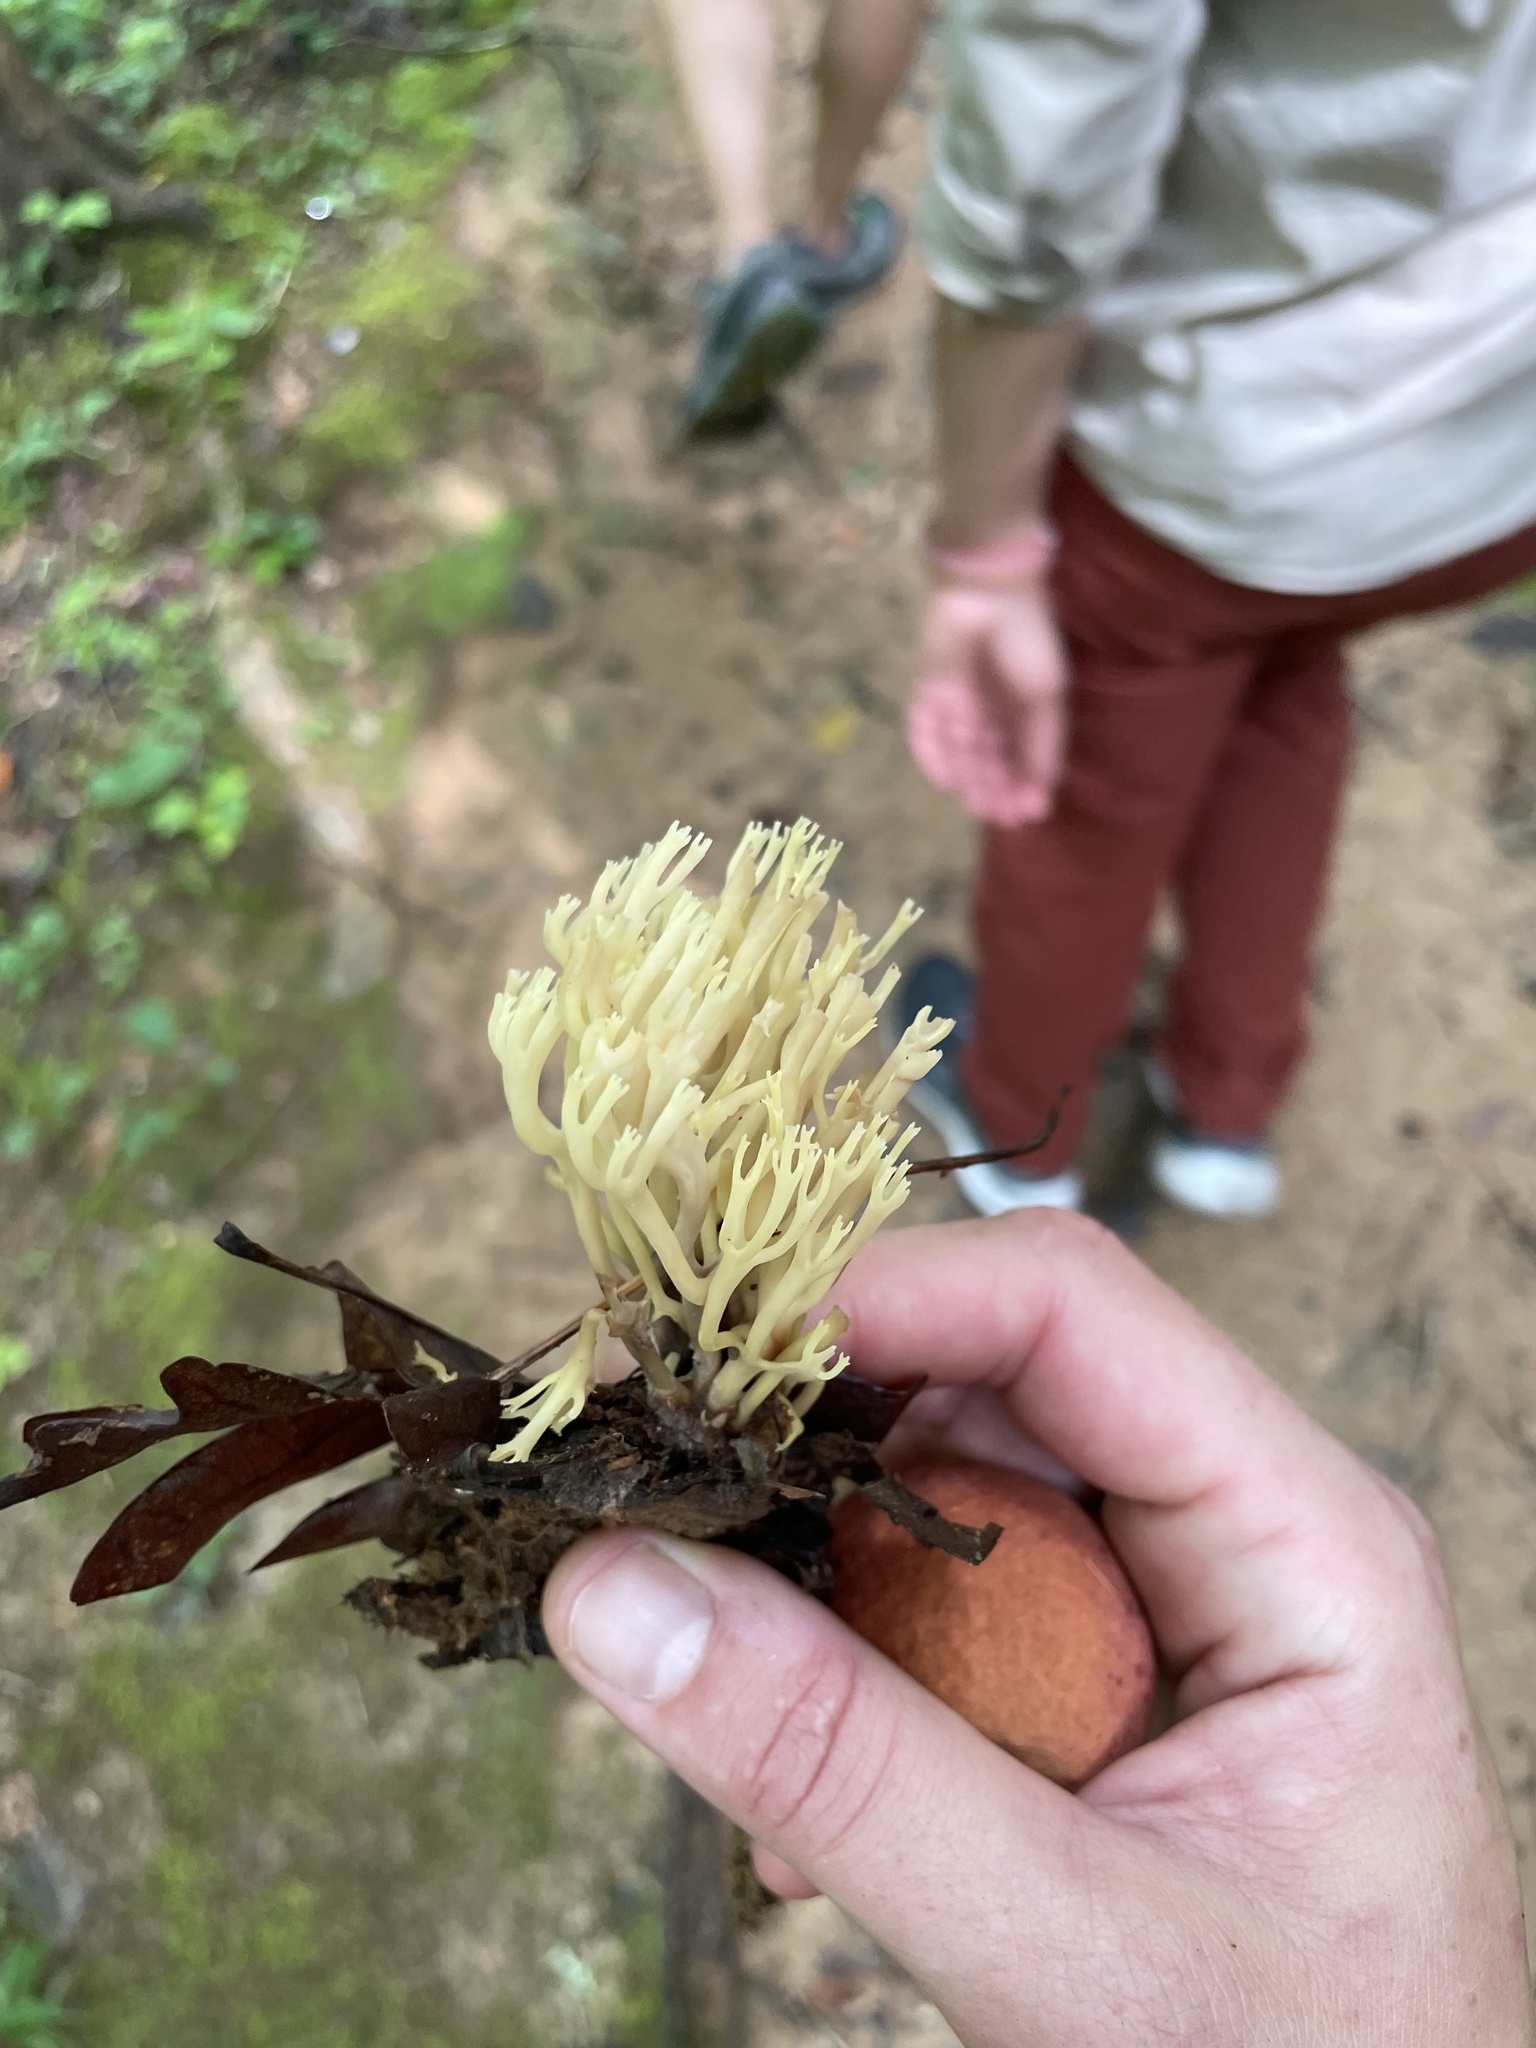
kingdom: Fungi
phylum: Basidiomycota
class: Agaricomycetes
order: Russulales
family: Auriscalpiaceae
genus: Artomyces
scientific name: Artomyces pyxidatus
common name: Crown-tipped coral fungus
